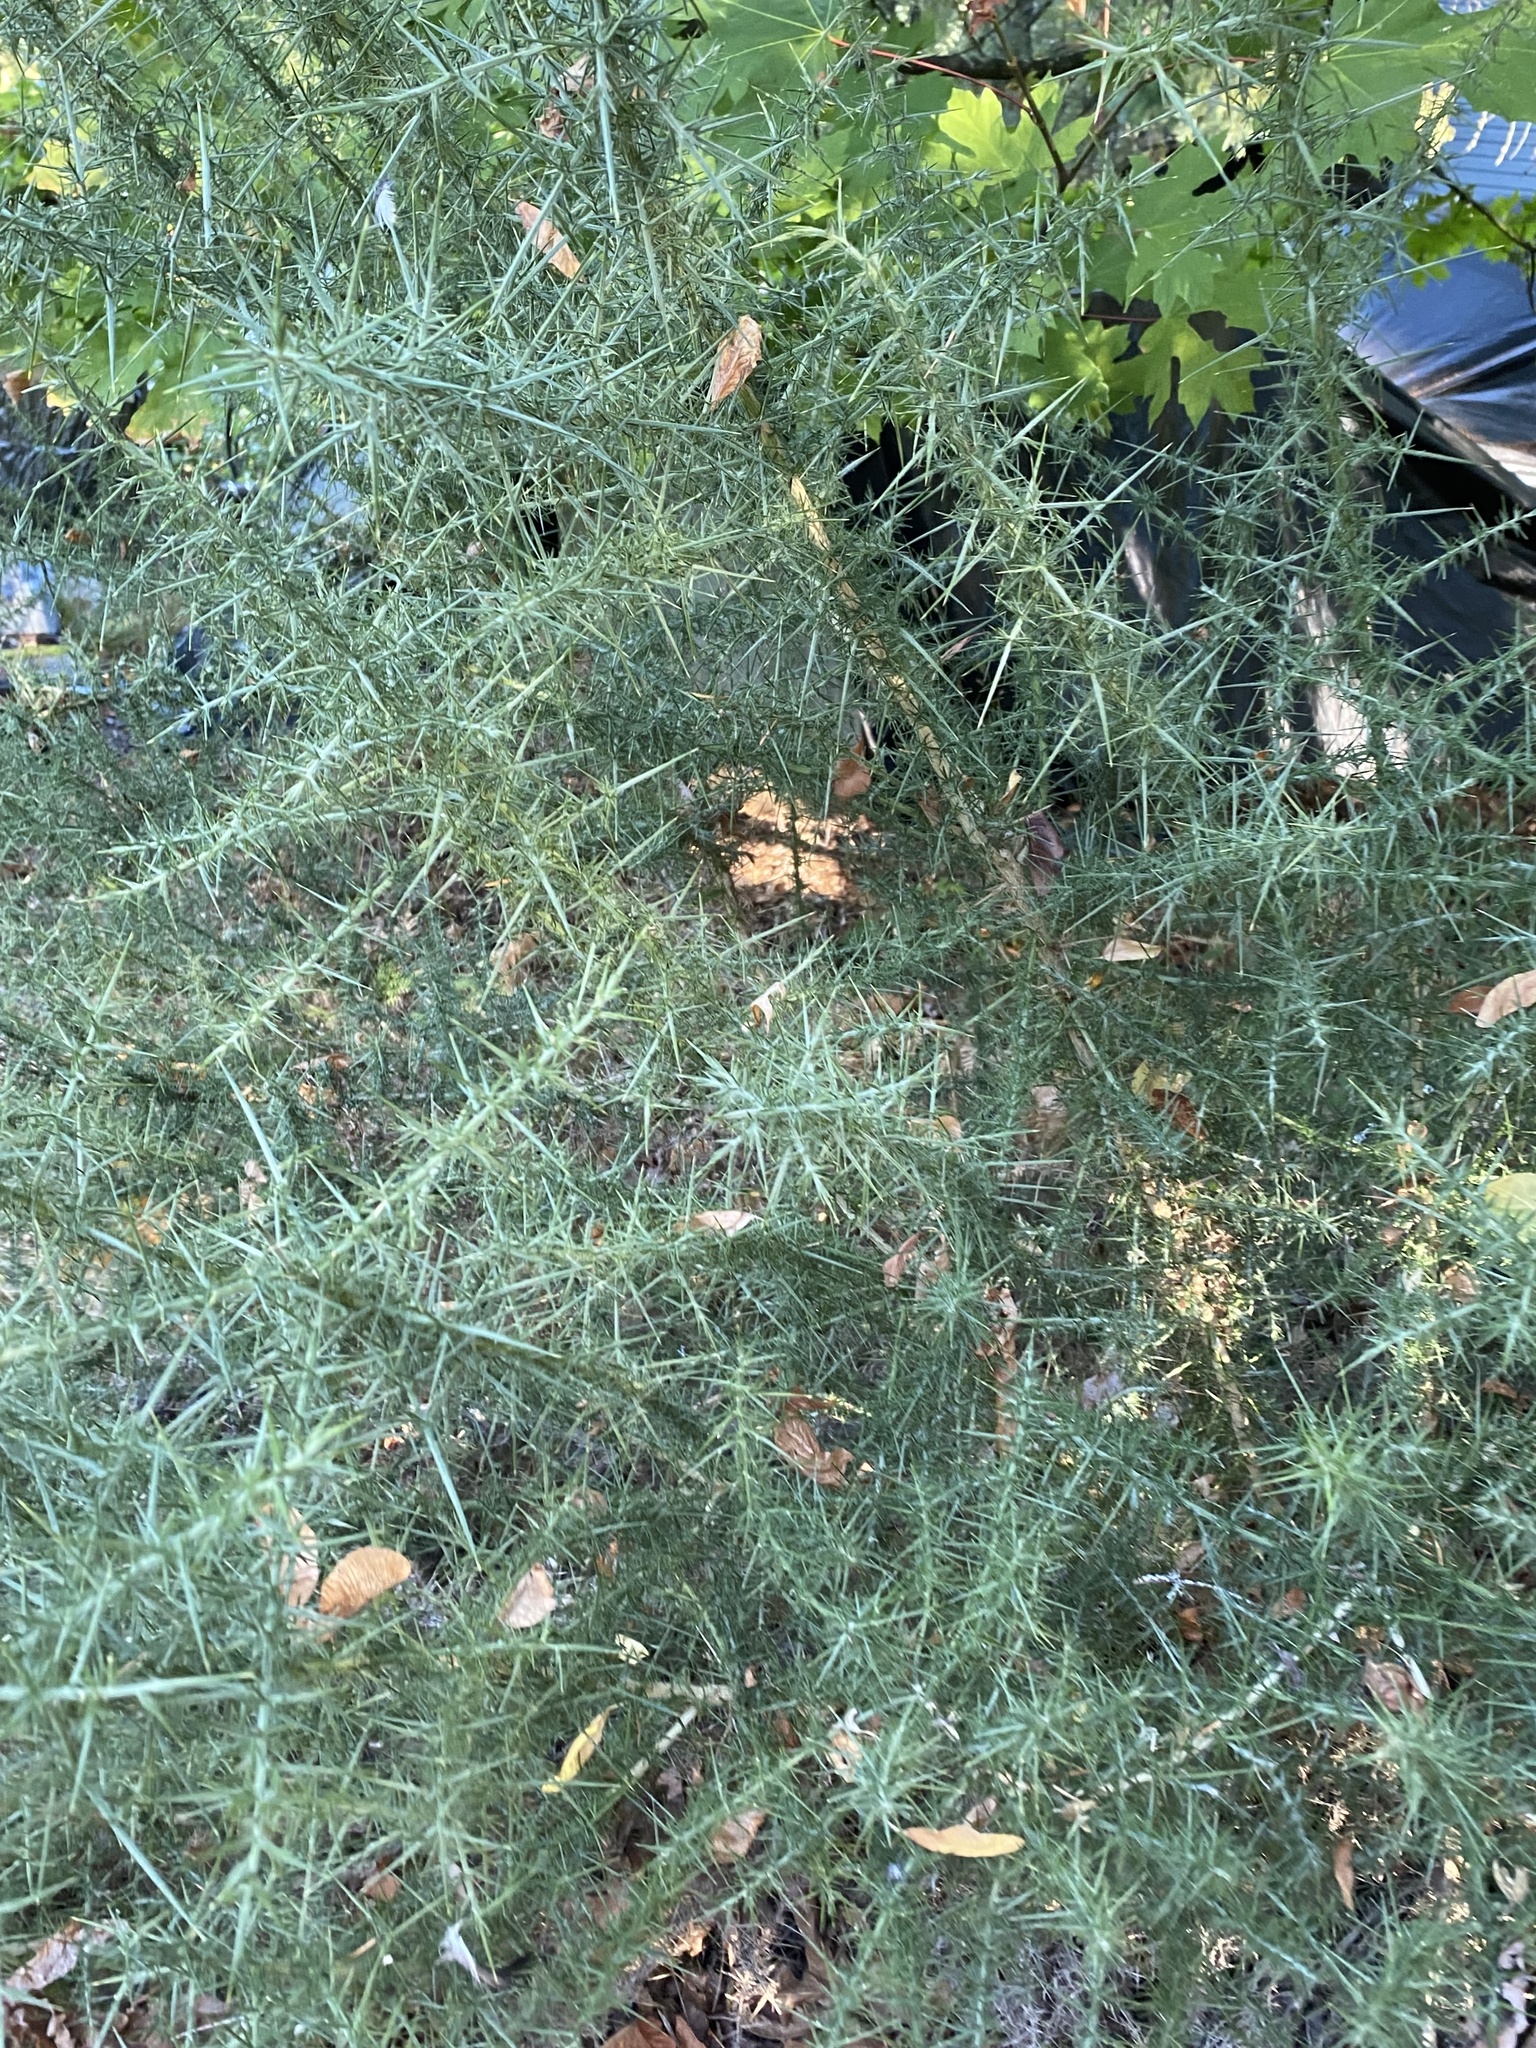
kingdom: Plantae
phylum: Tracheophyta
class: Magnoliopsida
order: Fabales
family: Fabaceae
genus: Ulex
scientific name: Ulex europaeus
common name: Common gorse
